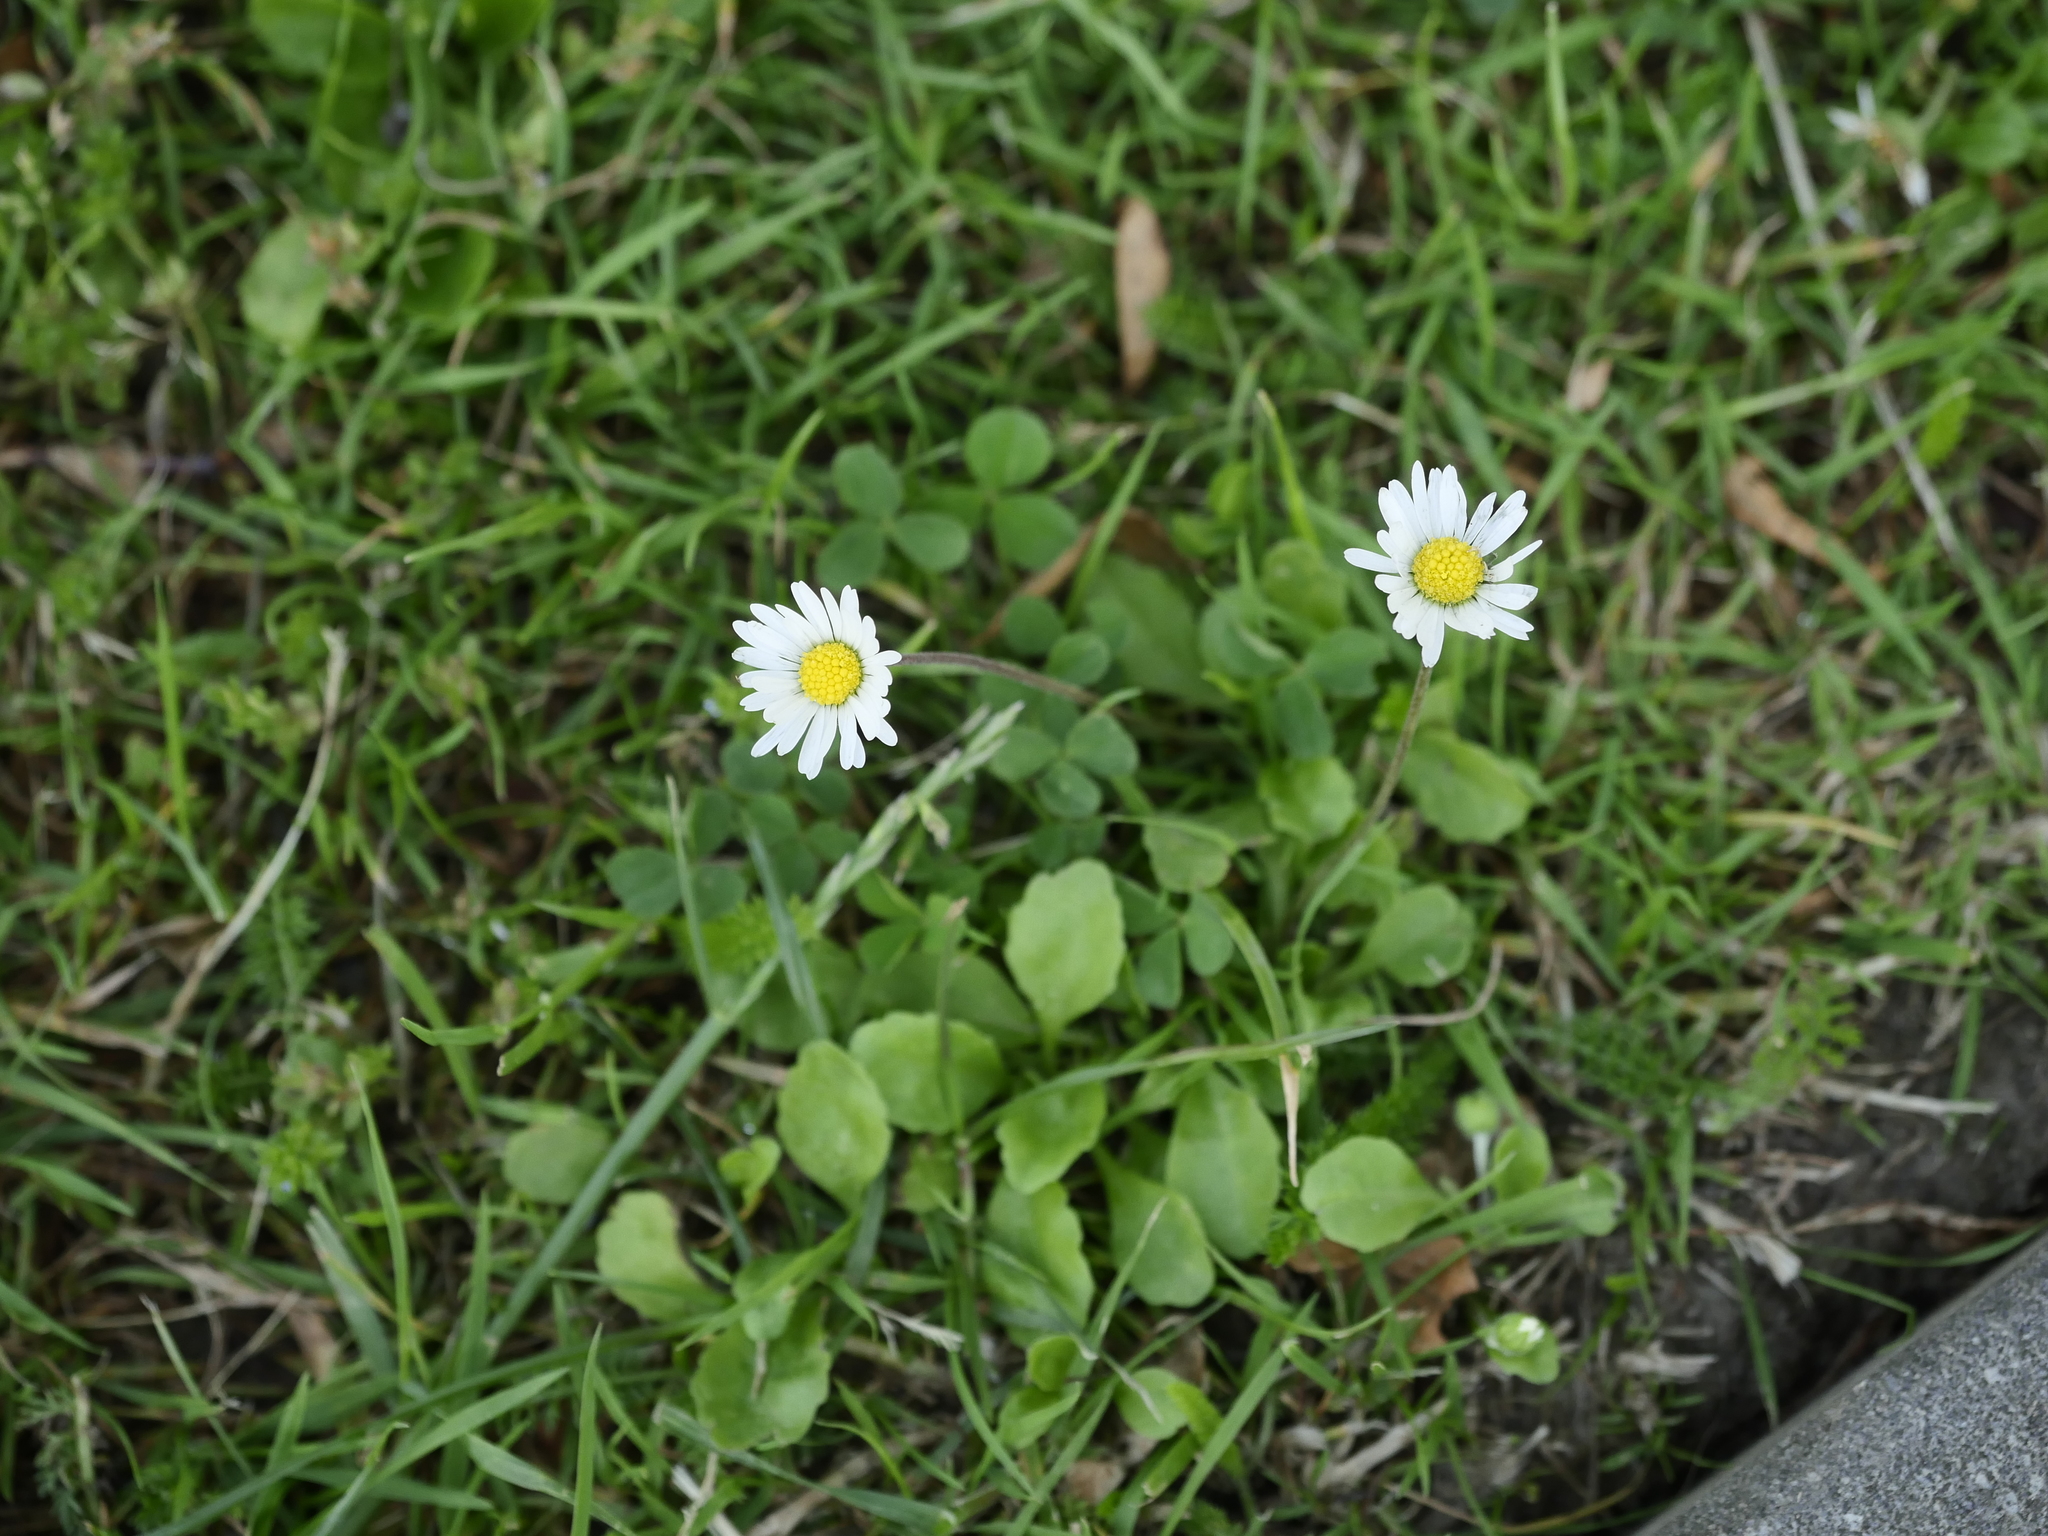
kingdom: Plantae
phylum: Tracheophyta
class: Magnoliopsida
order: Asterales
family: Asteraceae
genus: Bellis
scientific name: Bellis perennis
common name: Lawndaisy
